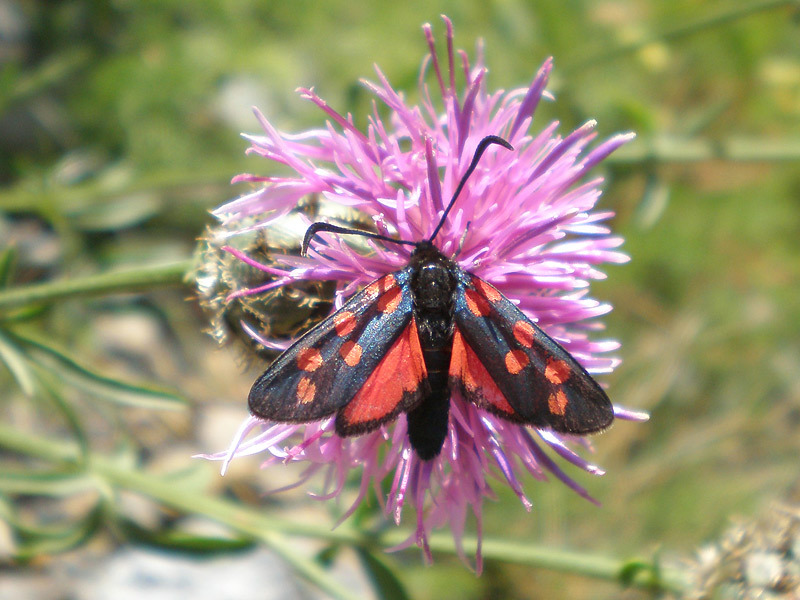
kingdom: Animalia
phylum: Arthropoda
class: Insecta
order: Lepidoptera
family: Zygaenidae
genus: Zygaena
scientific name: Zygaena transalpina
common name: Southern six spot burnet
